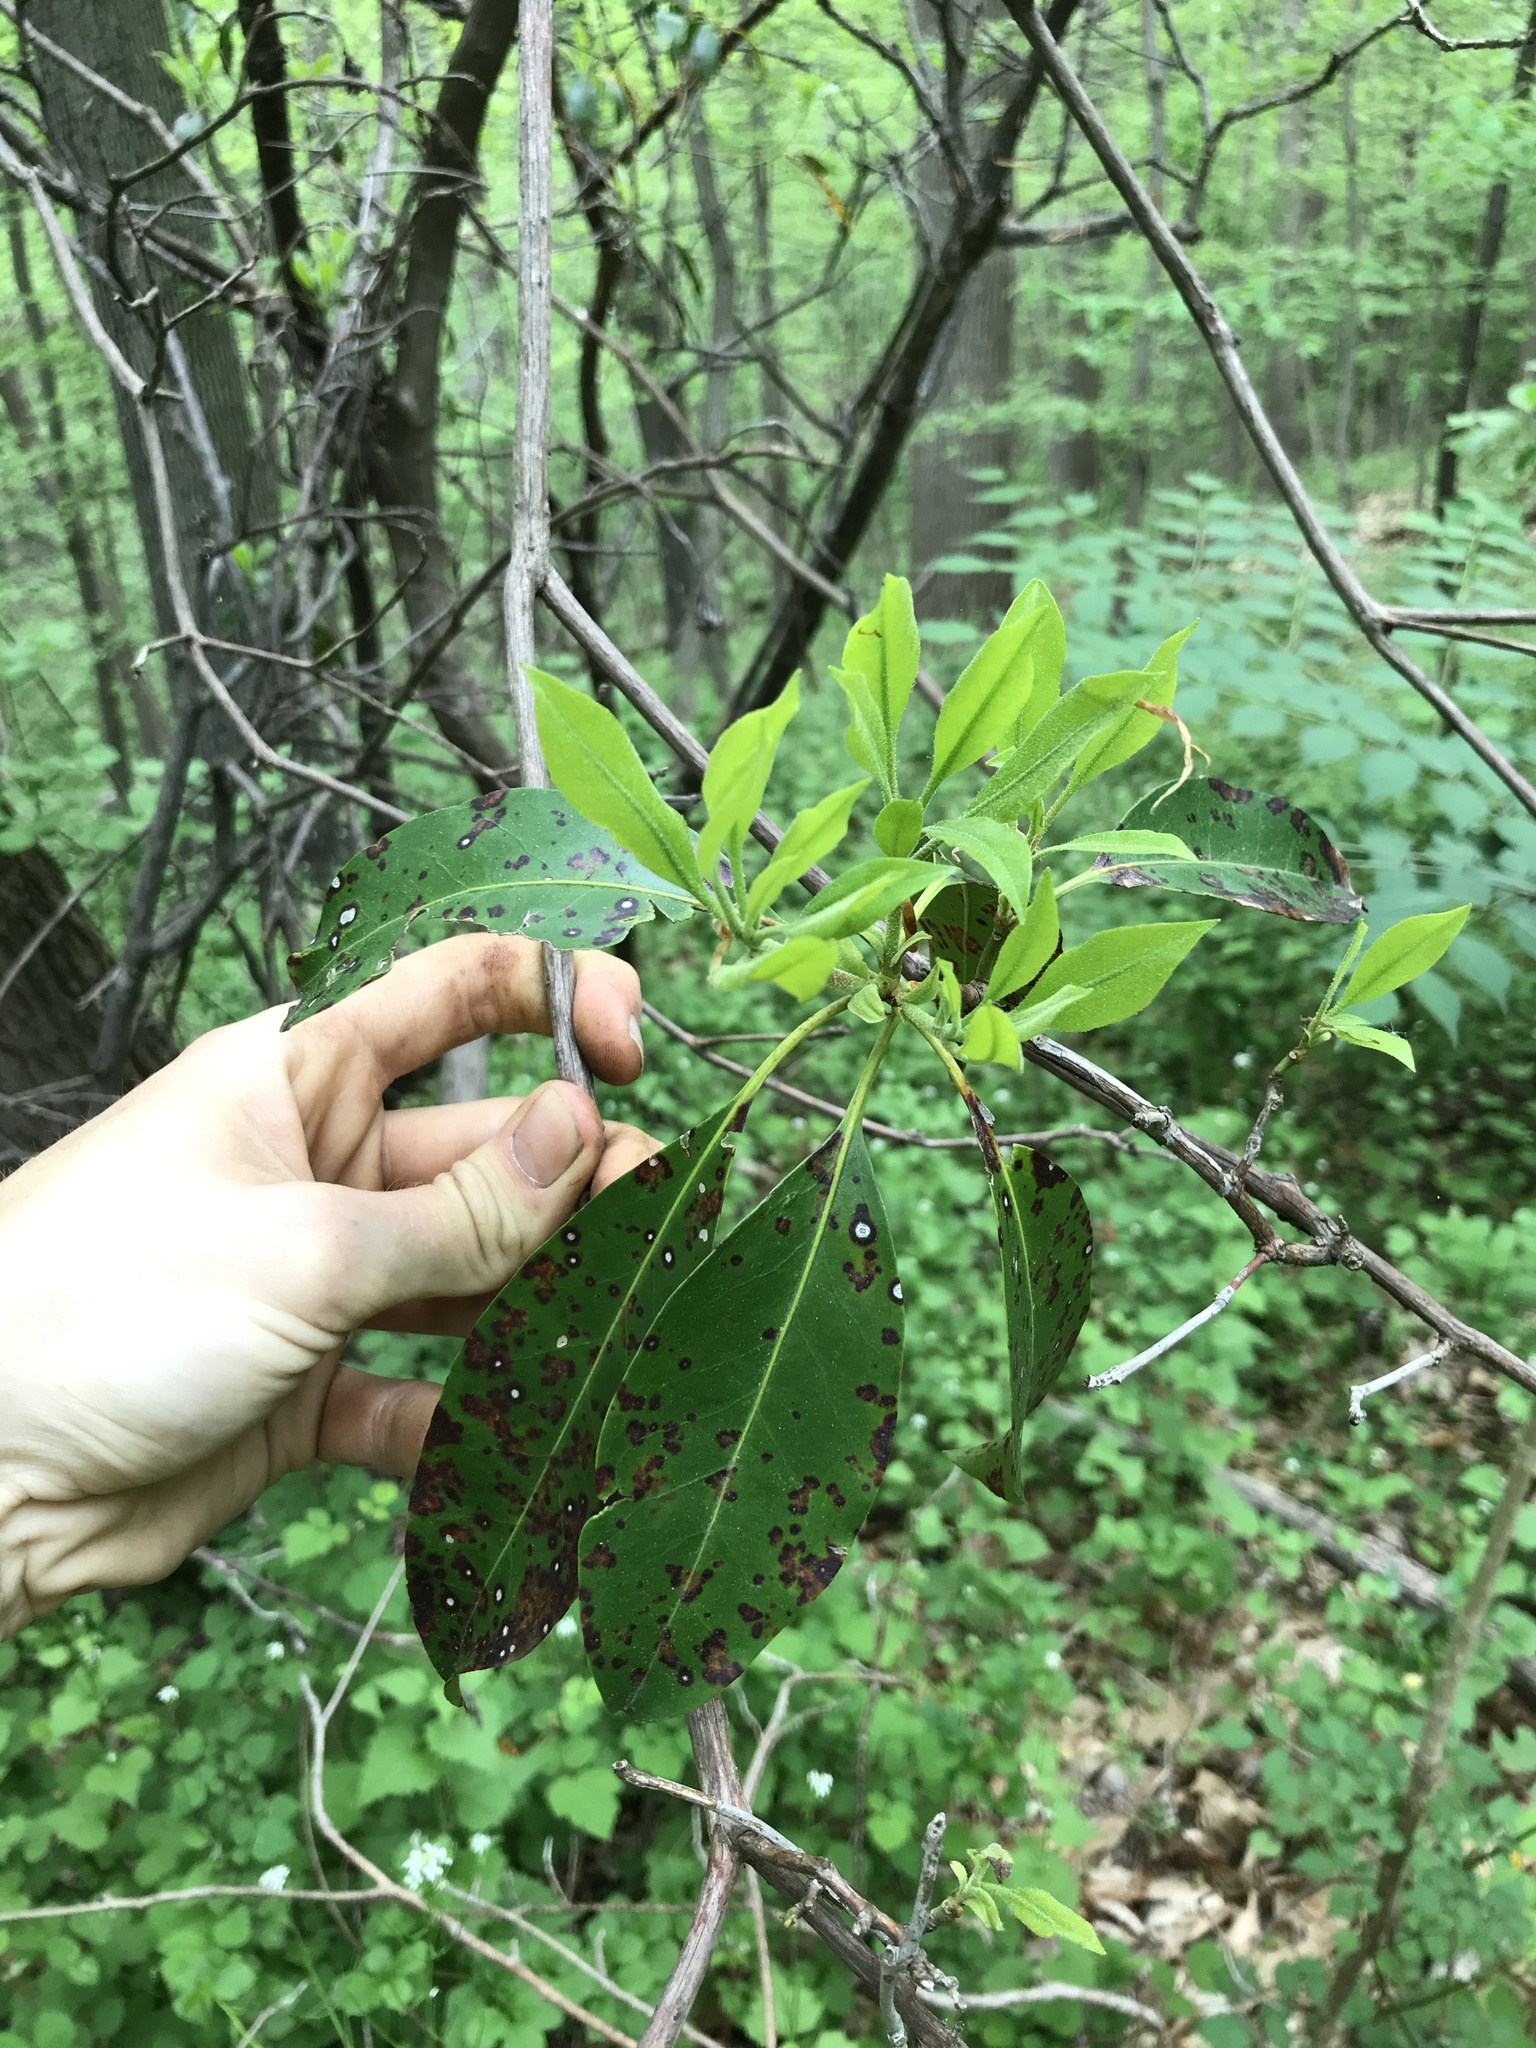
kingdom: Plantae
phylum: Tracheophyta
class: Magnoliopsida
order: Ericales
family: Ericaceae
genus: Kalmia
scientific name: Kalmia latifolia
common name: Mountain-laurel
